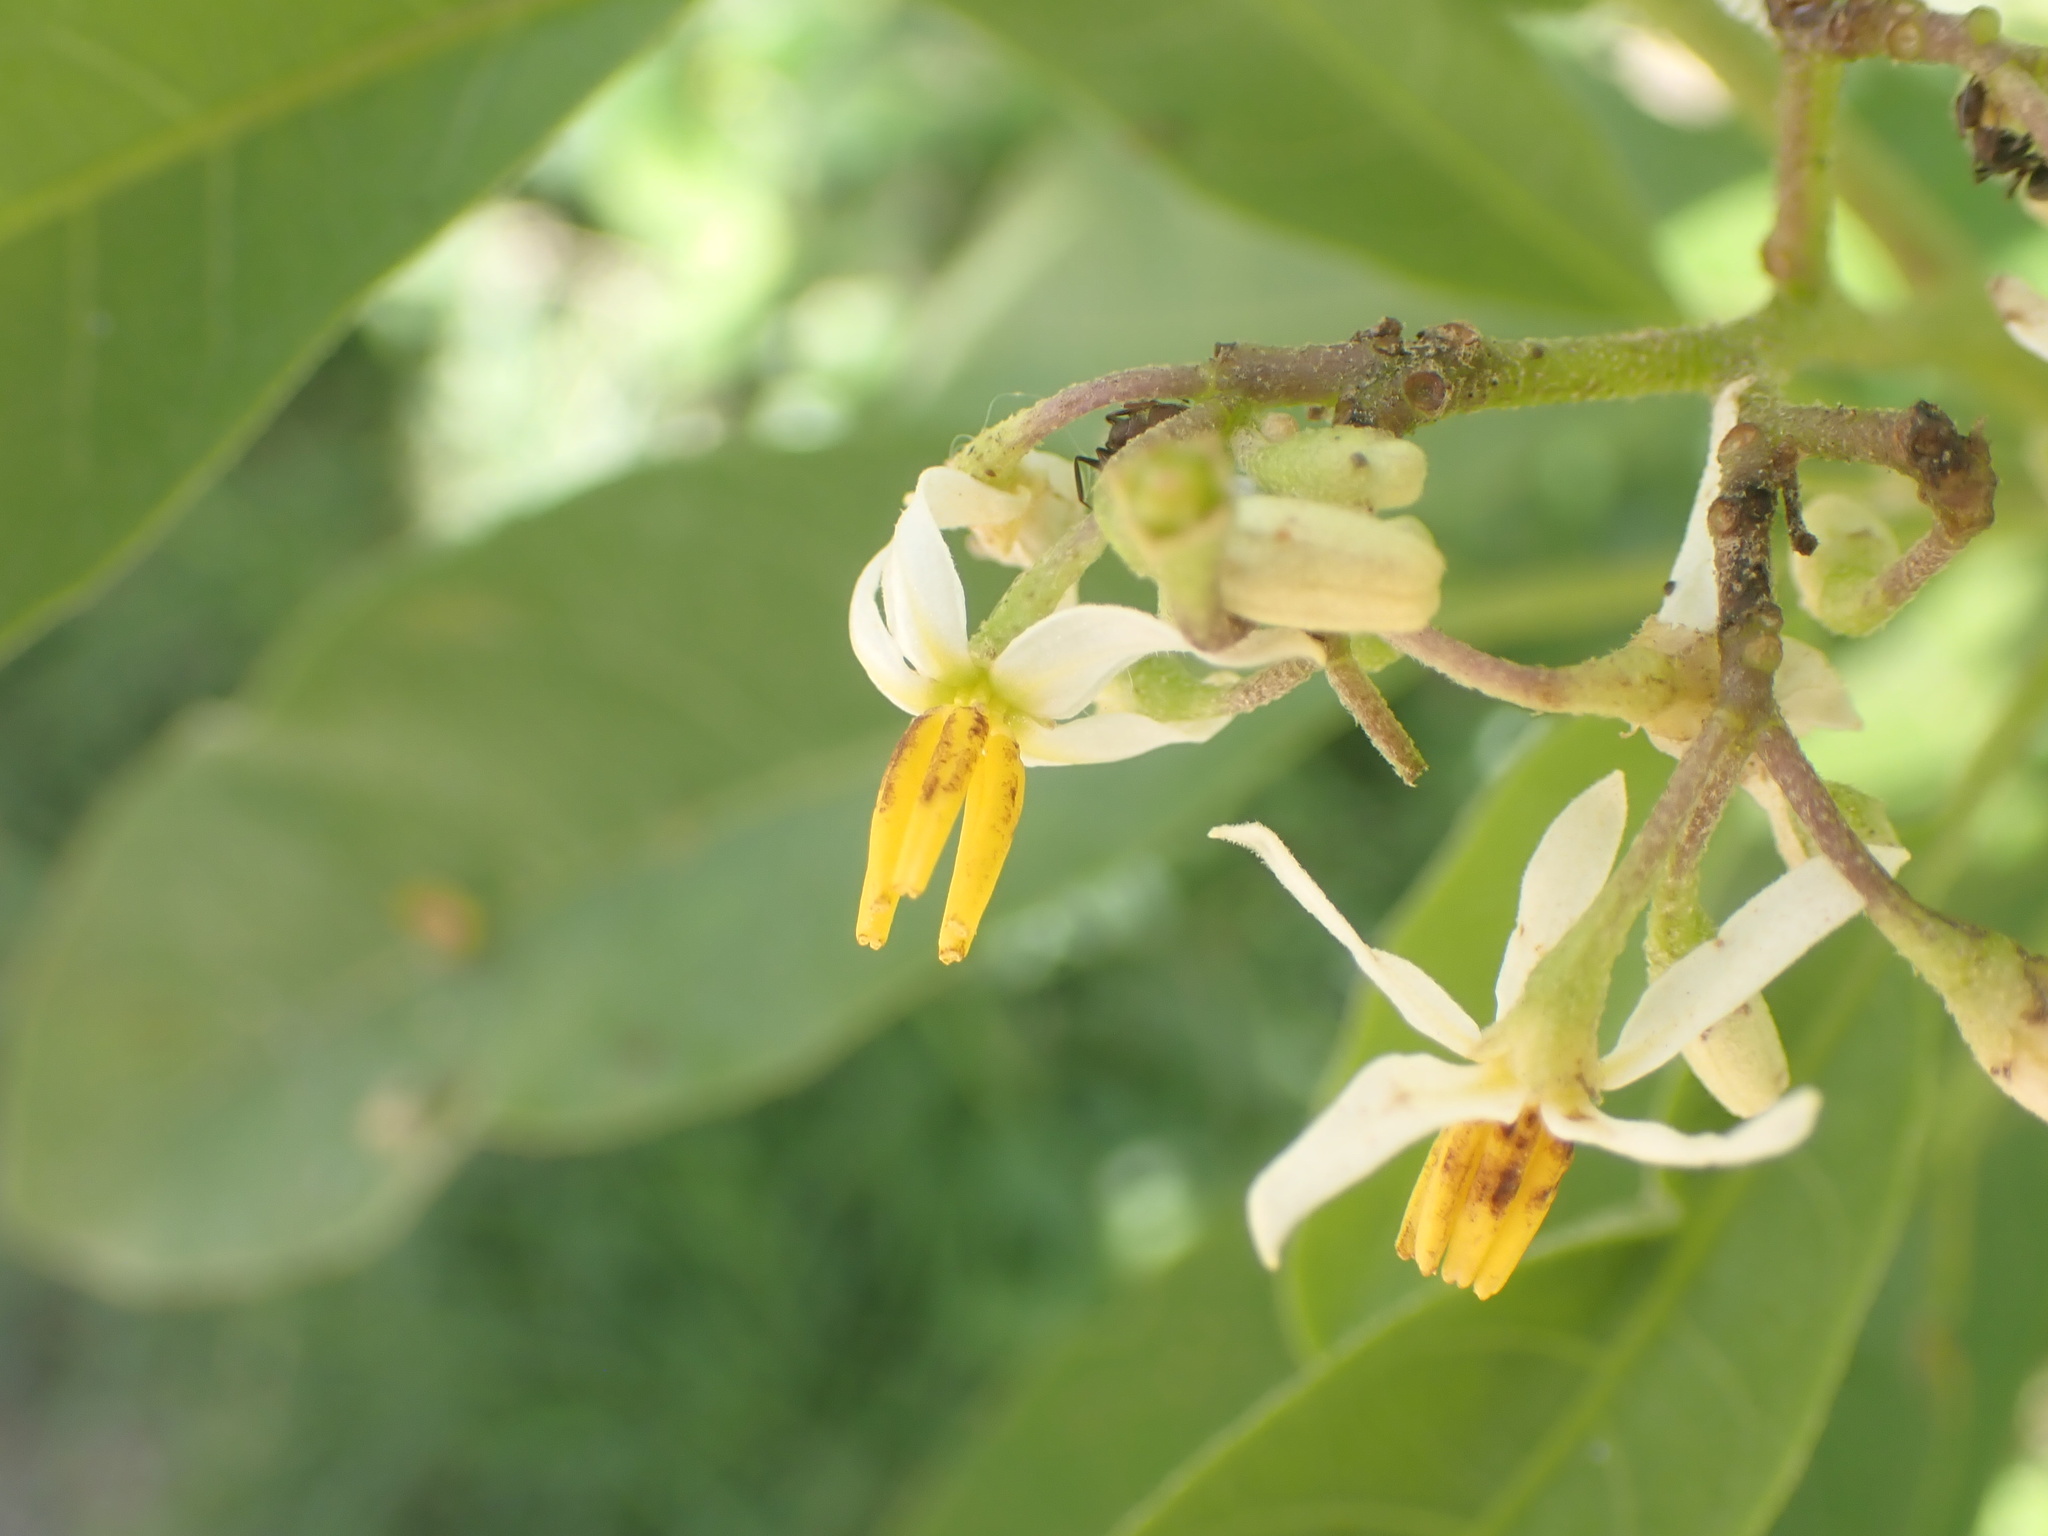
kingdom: Plantae
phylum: Tracheophyta
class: Magnoliopsida
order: Solanales
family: Solanaceae
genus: Solanum
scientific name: Solanum donianum
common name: Mullein nightshade
